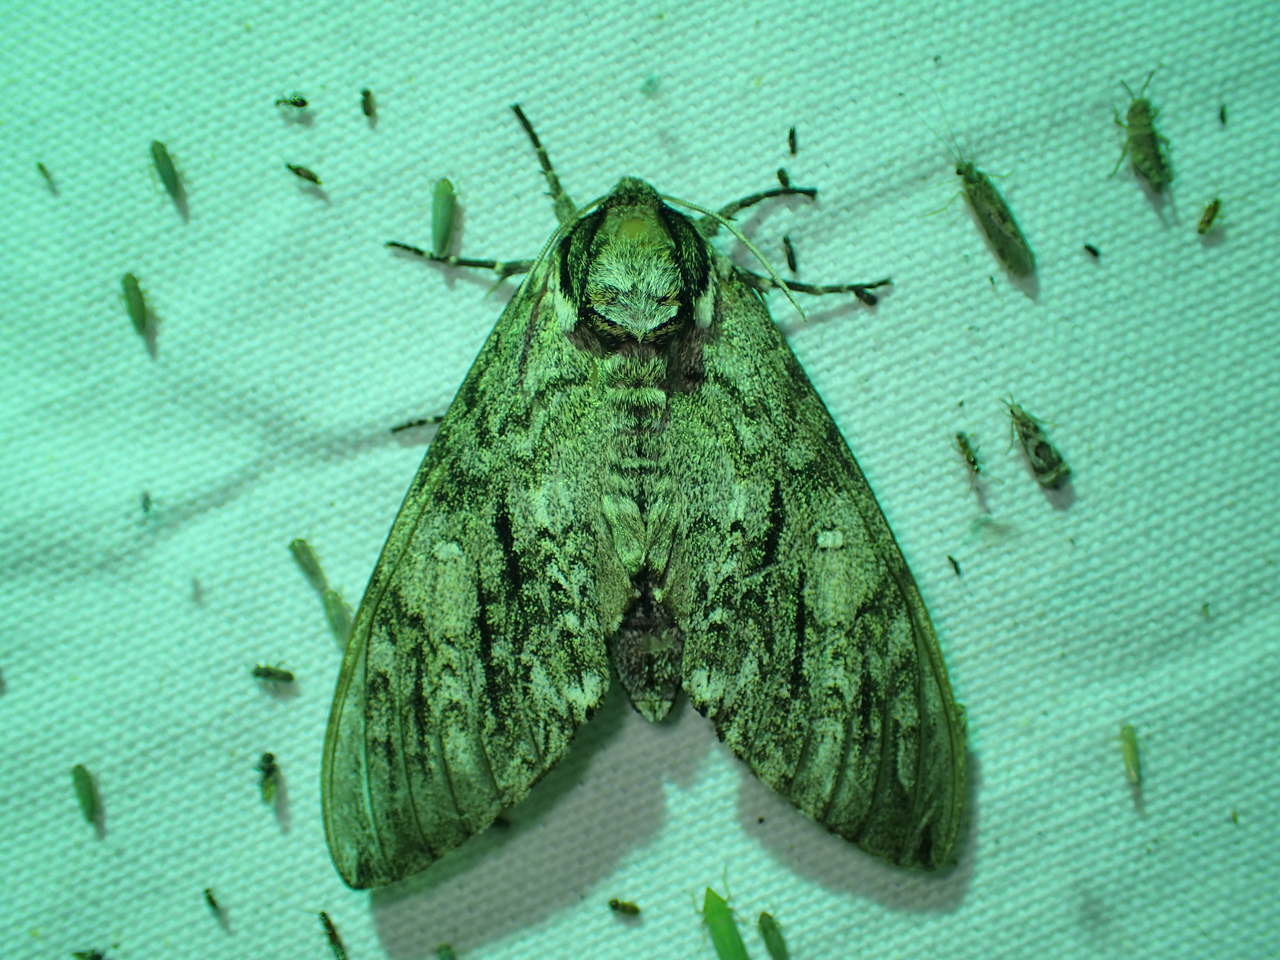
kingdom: Animalia
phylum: Arthropoda
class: Insecta
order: Lepidoptera
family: Sphingidae
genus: Ceratomia
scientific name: Ceratomia undulosa
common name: Waved sphinx
